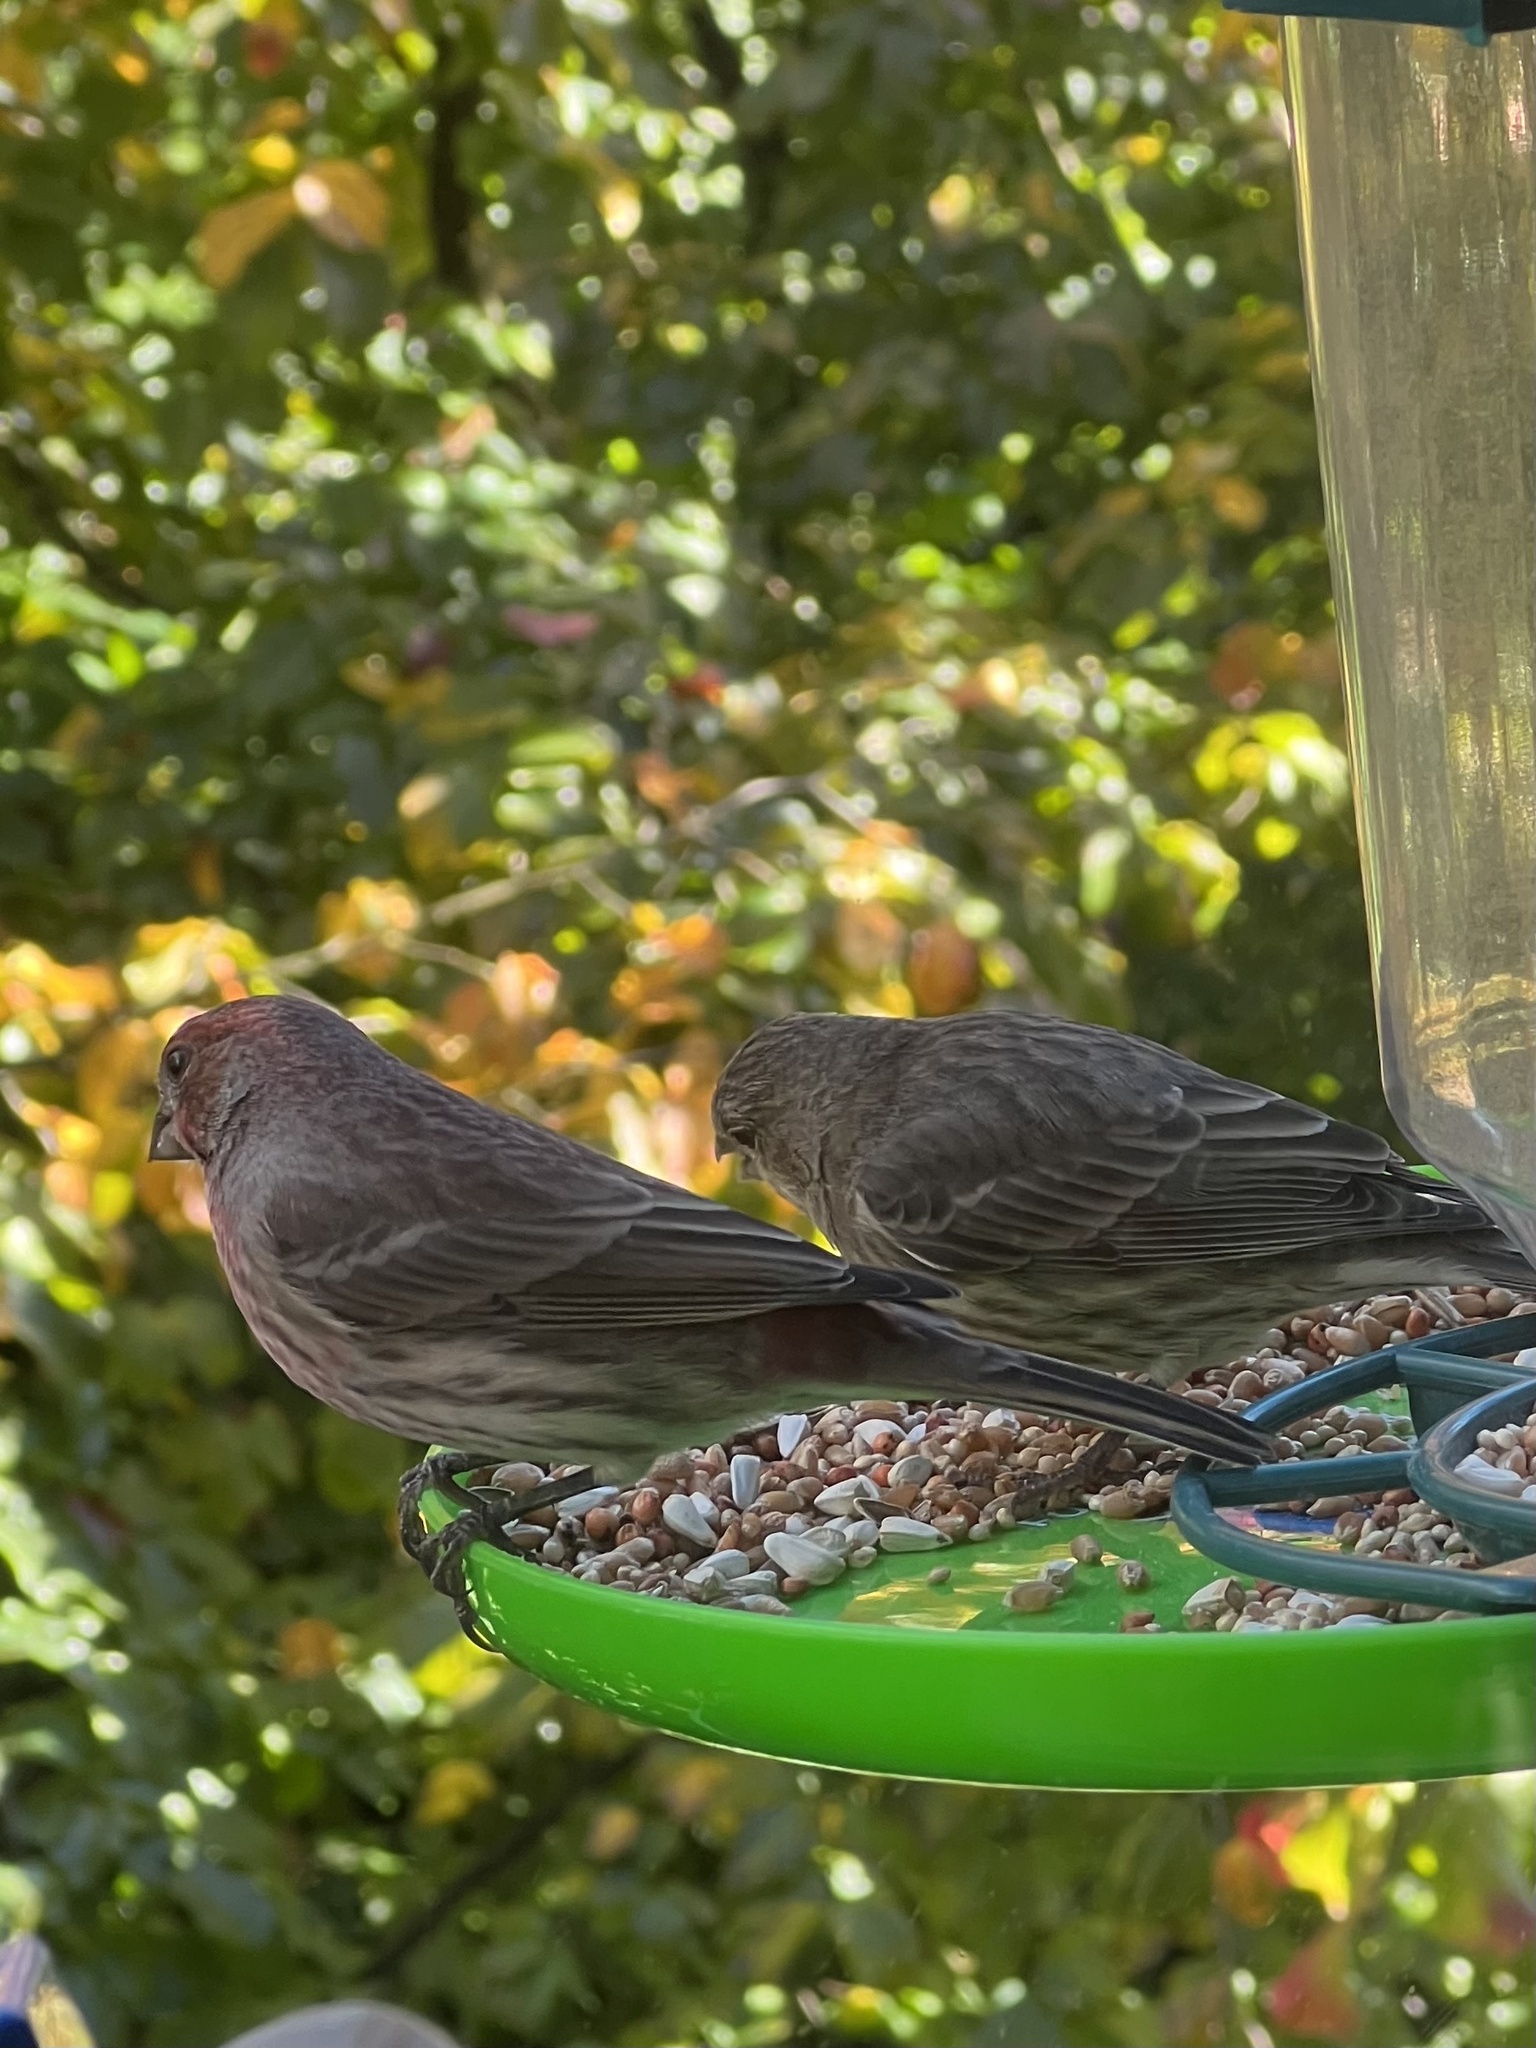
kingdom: Animalia
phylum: Chordata
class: Aves
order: Passeriformes
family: Fringillidae
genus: Haemorhous
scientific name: Haemorhous mexicanus
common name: House finch
